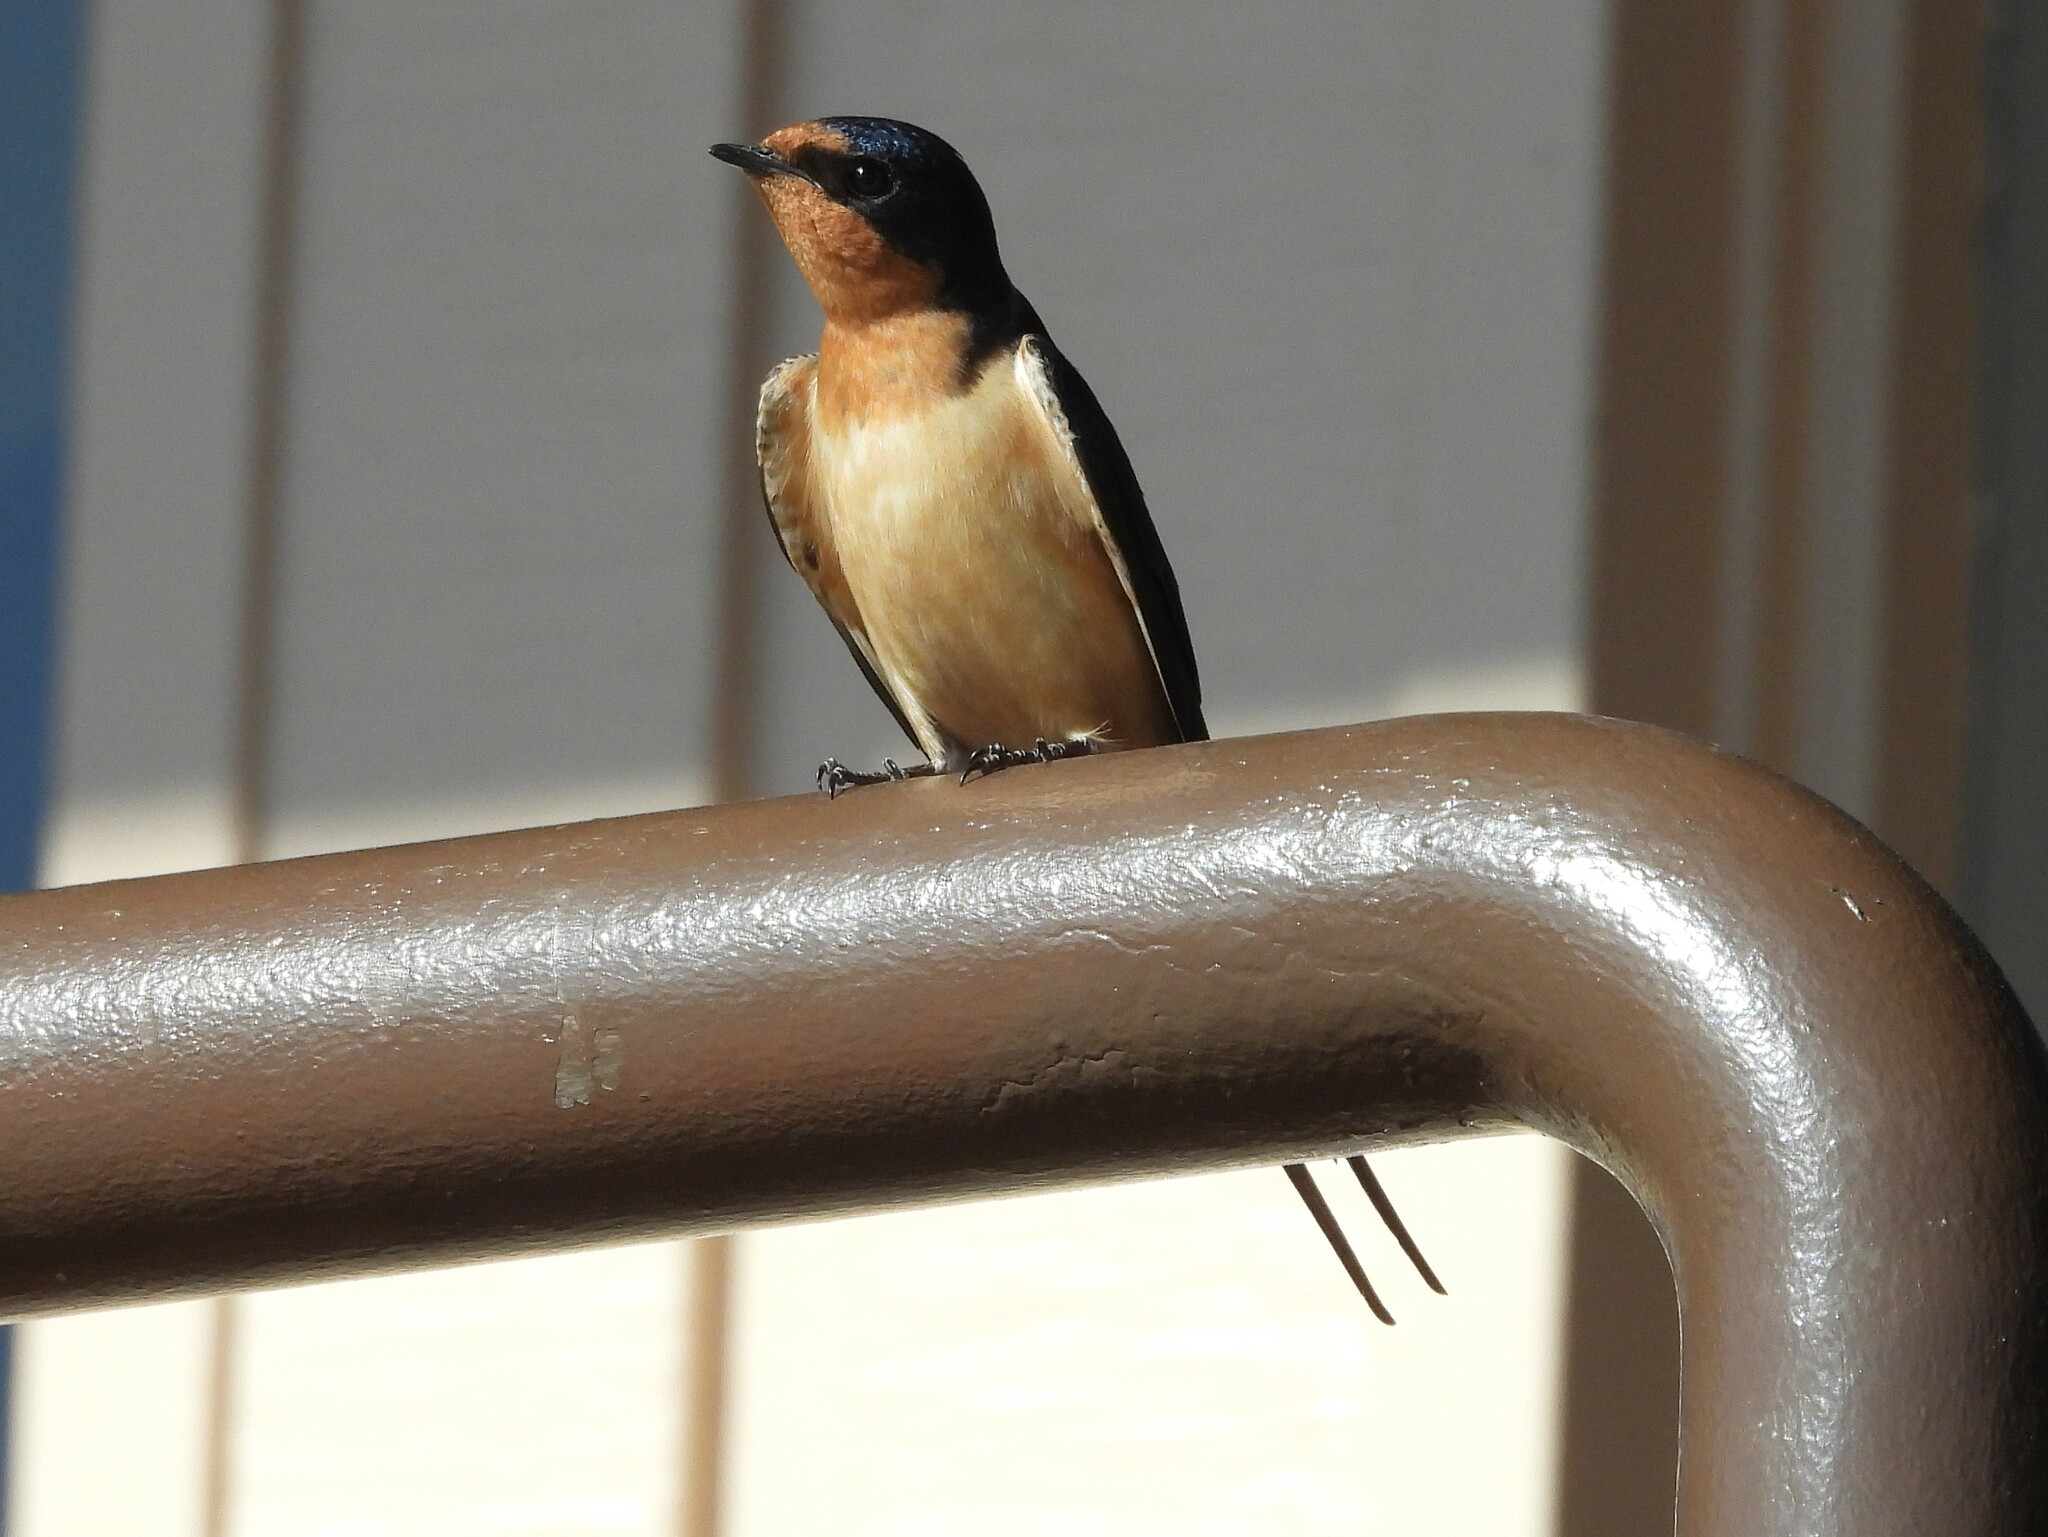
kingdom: Animalia
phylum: Chordata
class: Aves
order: Passeriformes
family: Hirundinidae
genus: Hirundo
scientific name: Hirundo rustica
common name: Barn swallow
